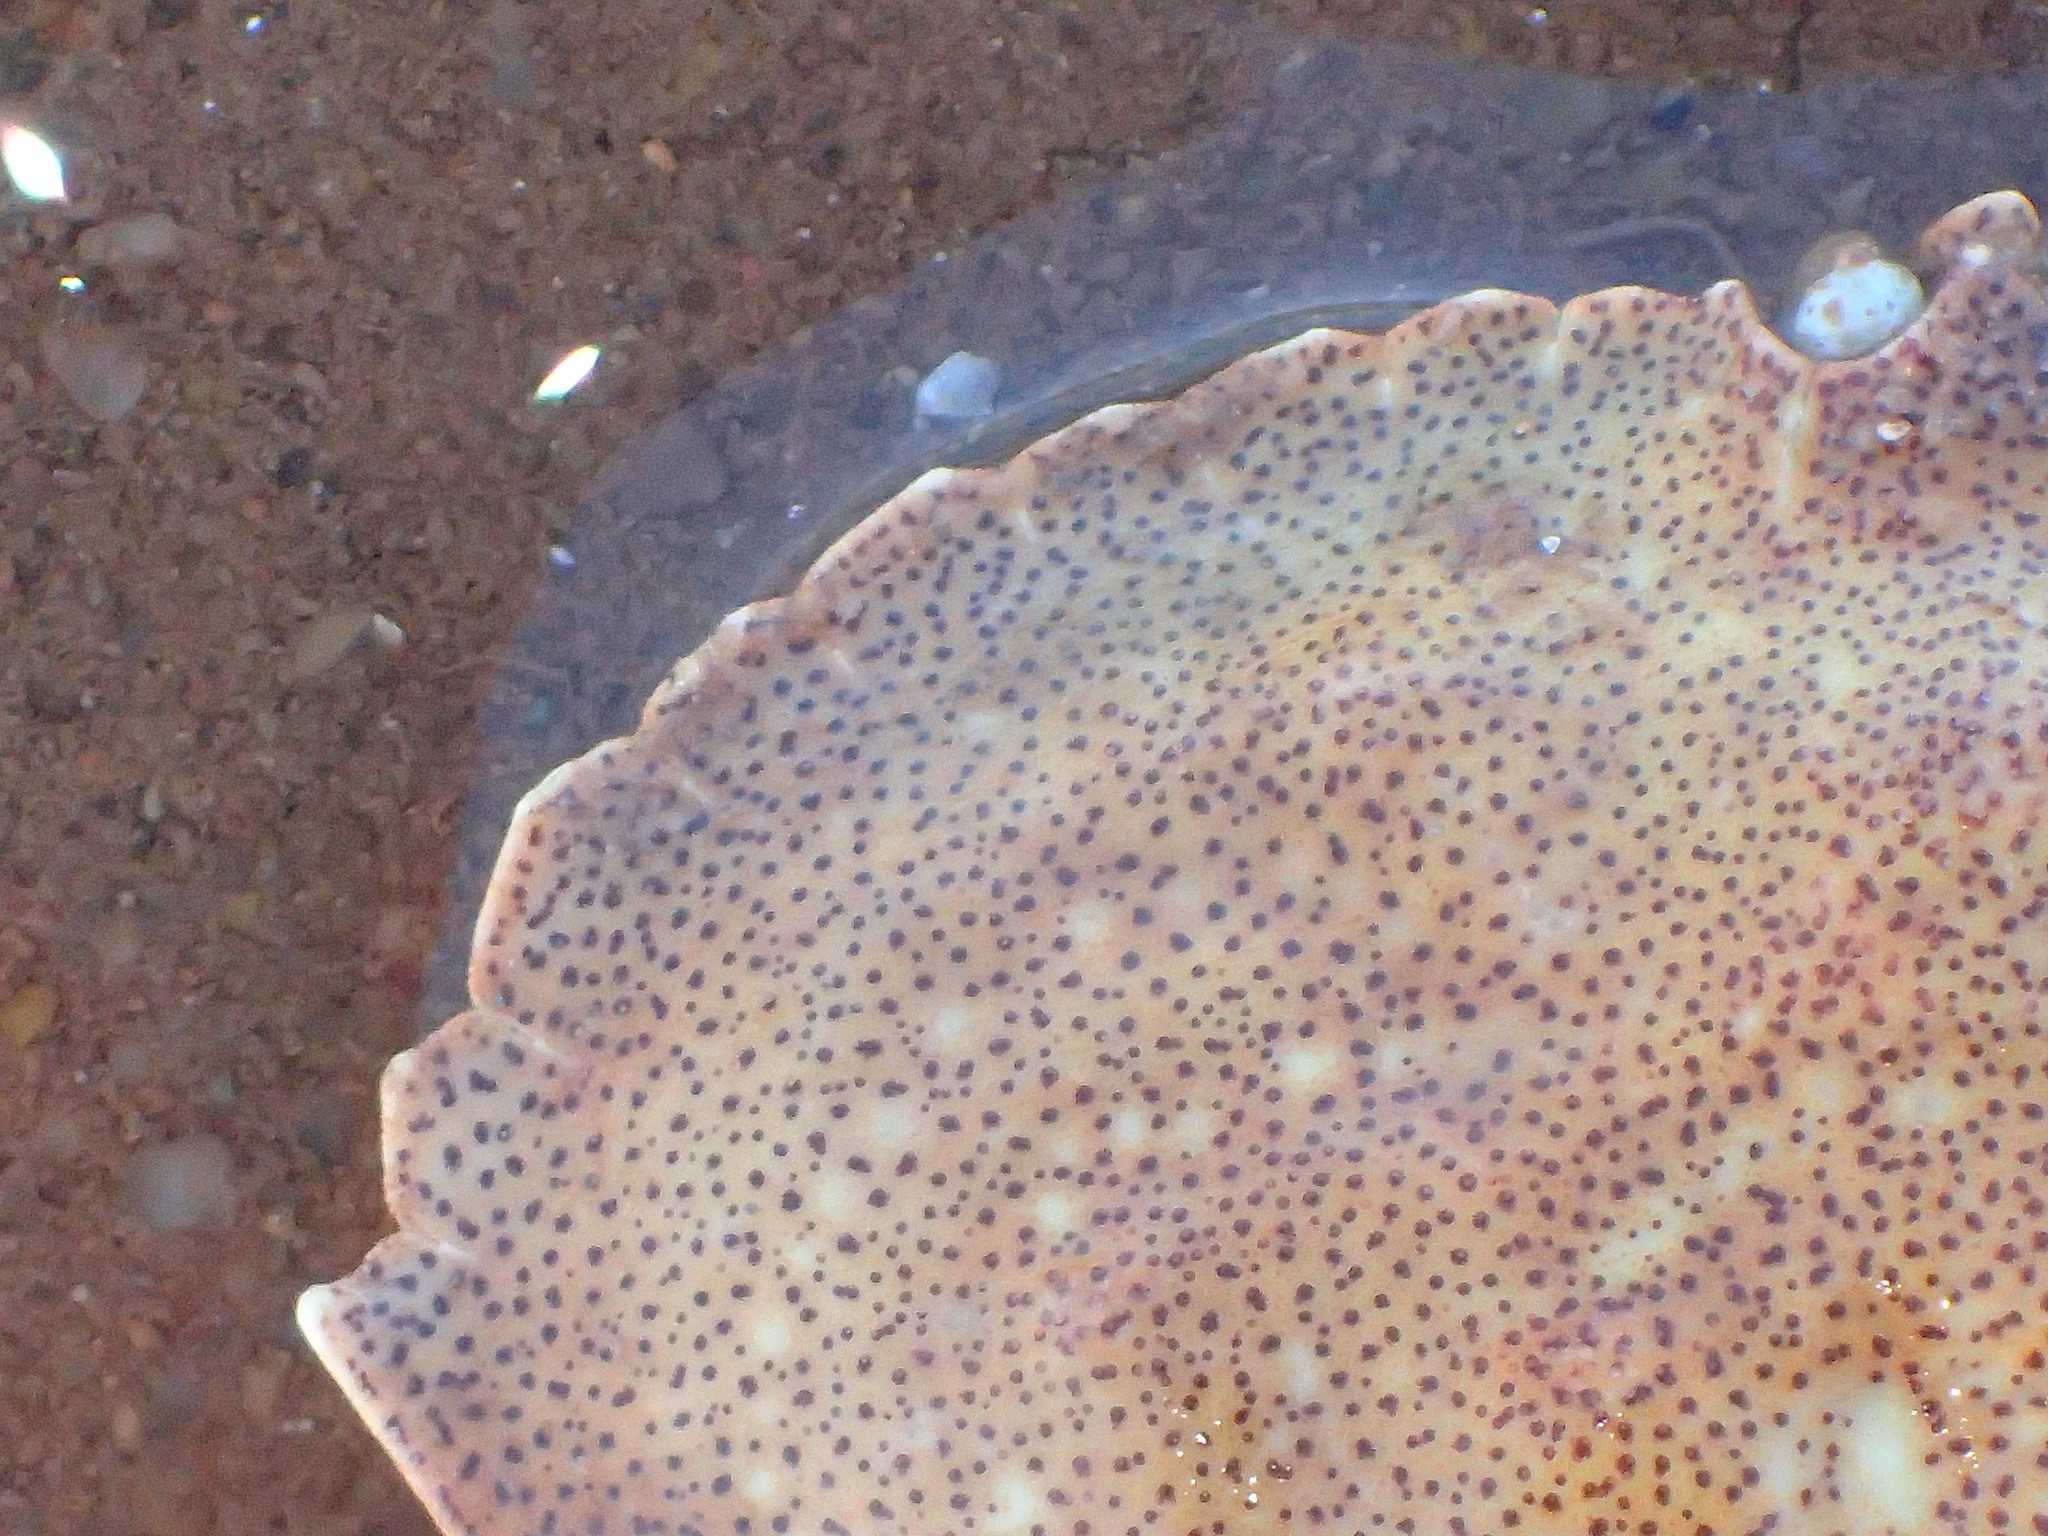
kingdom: Animalia
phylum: Arthropoda
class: Malacostraca
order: Decapoda
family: Cancridae
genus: Cancer
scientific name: Cancer irroratus
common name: Atlantic rock crab
